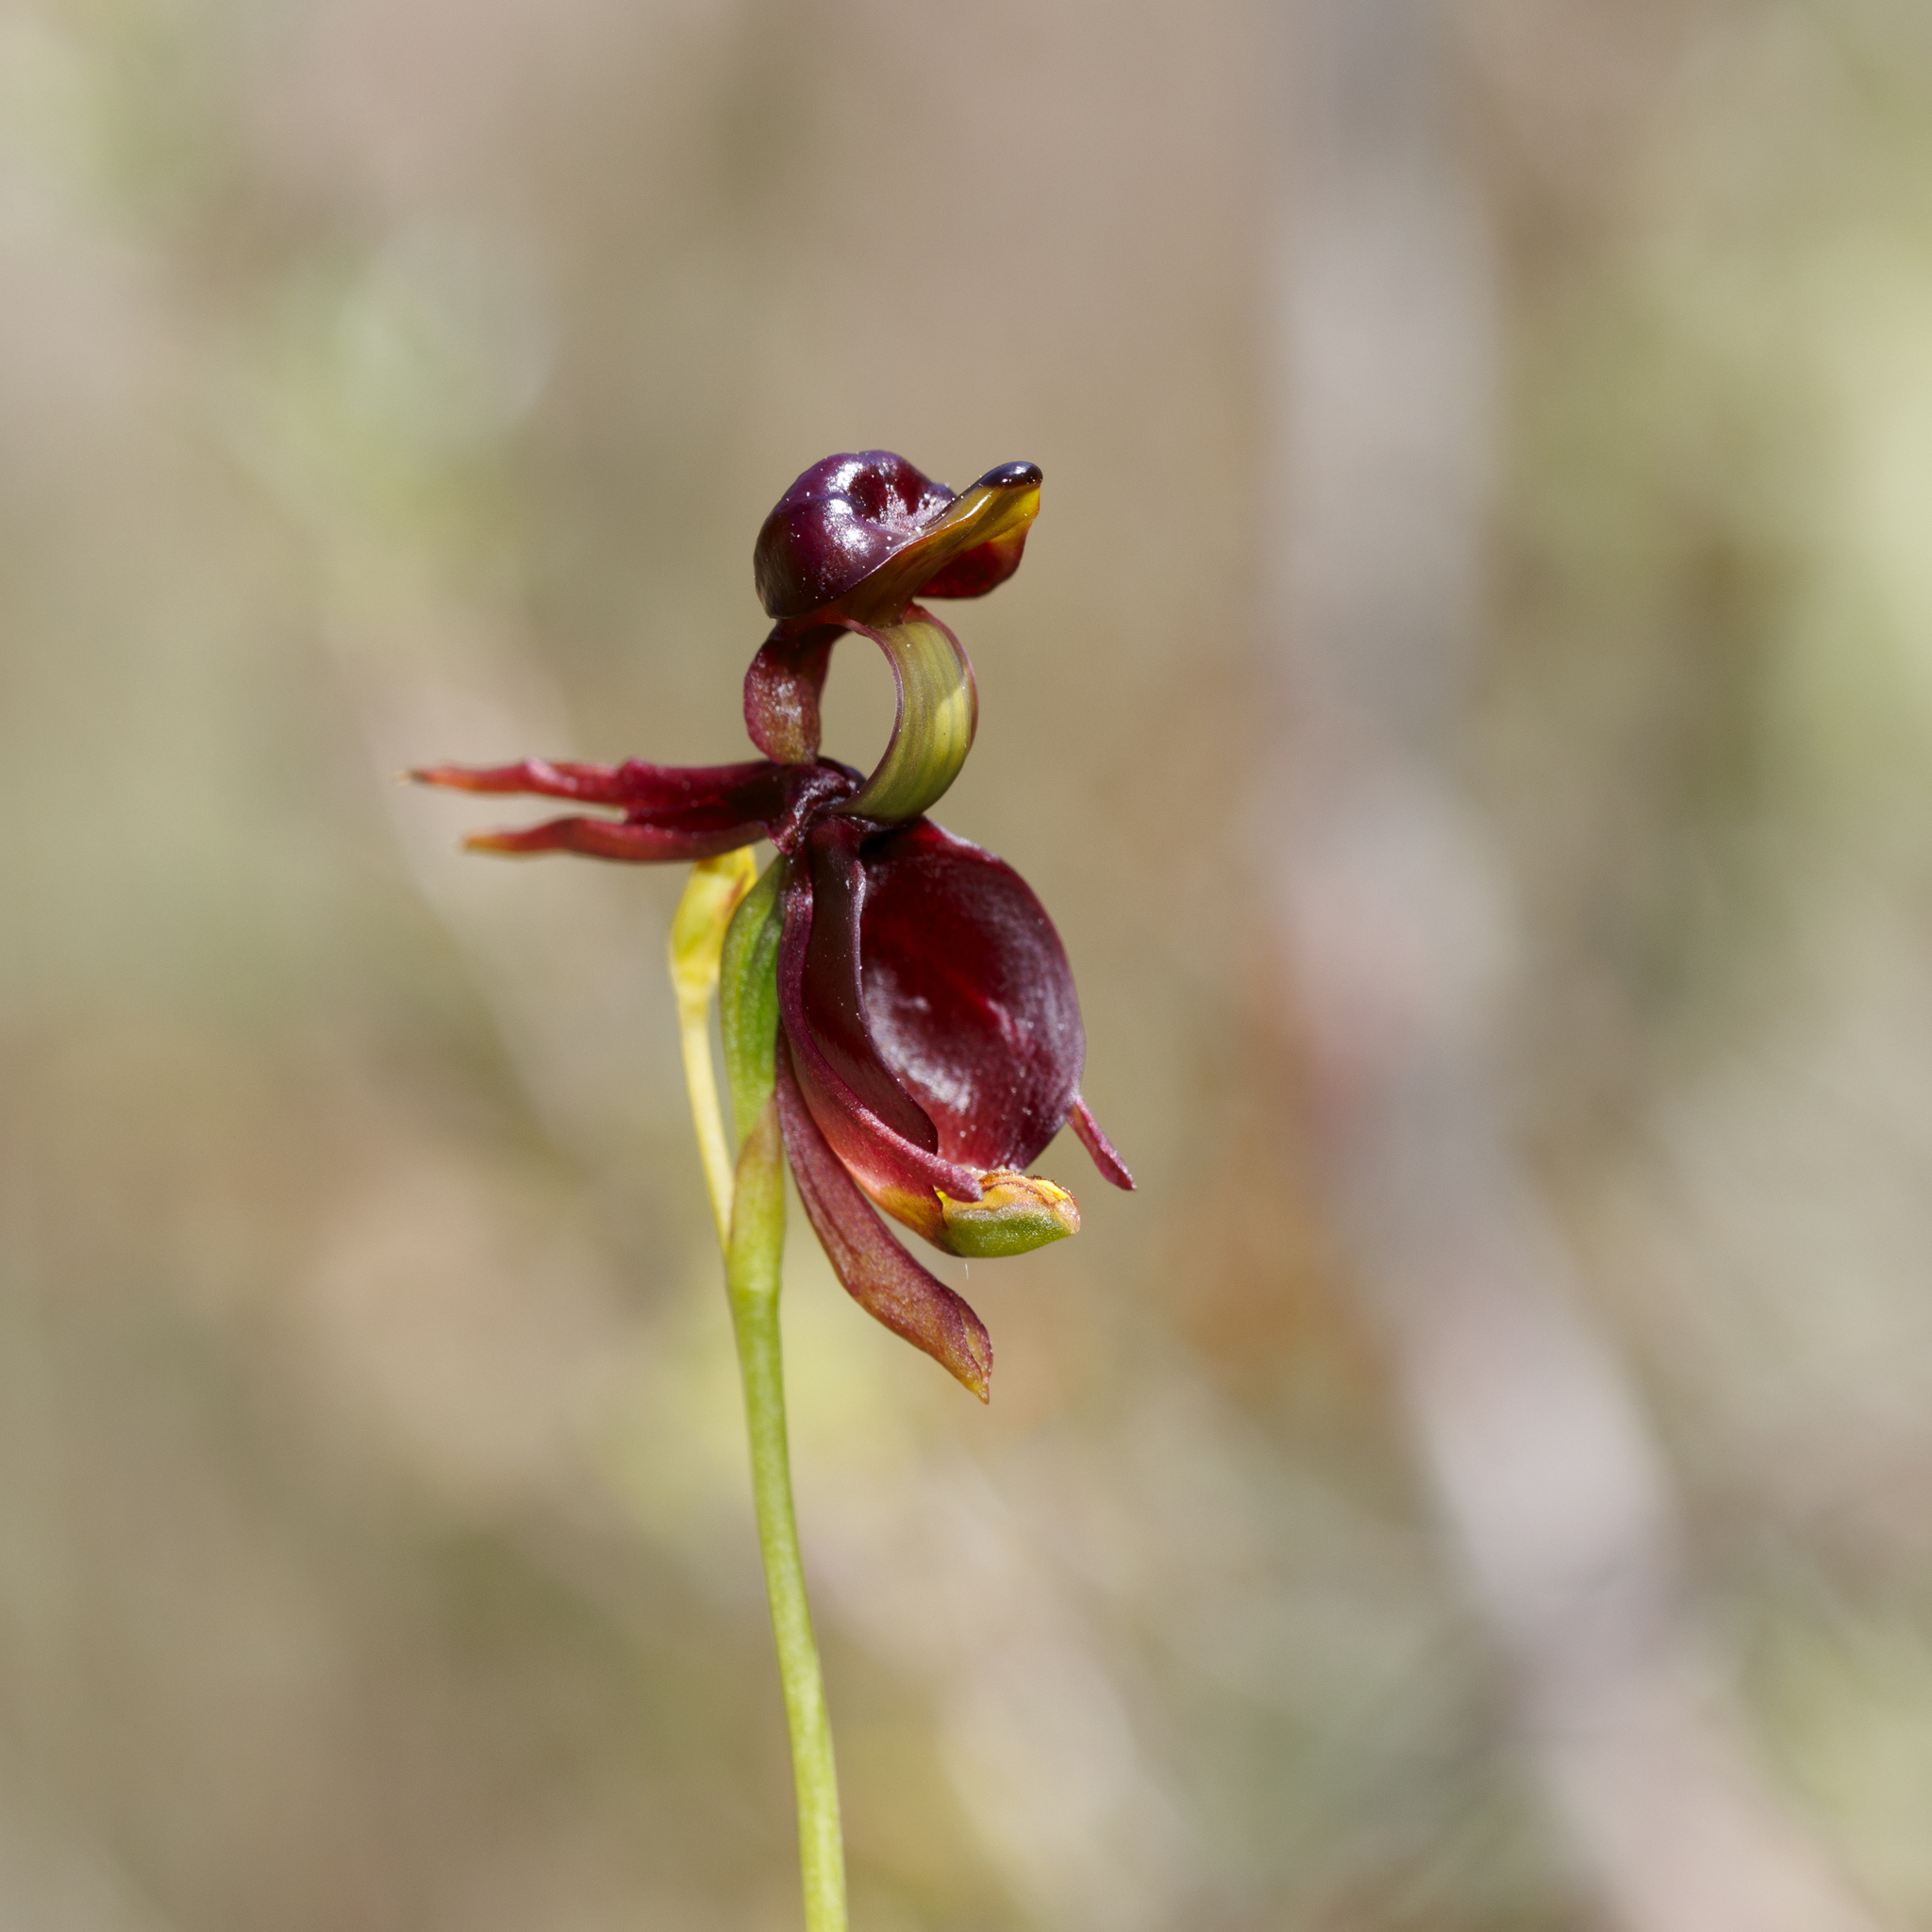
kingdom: Plantae
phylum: Tracheophyta
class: Liliopsida
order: Asparagales
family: Orchidaceae
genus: Caleana
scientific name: Caleana major
